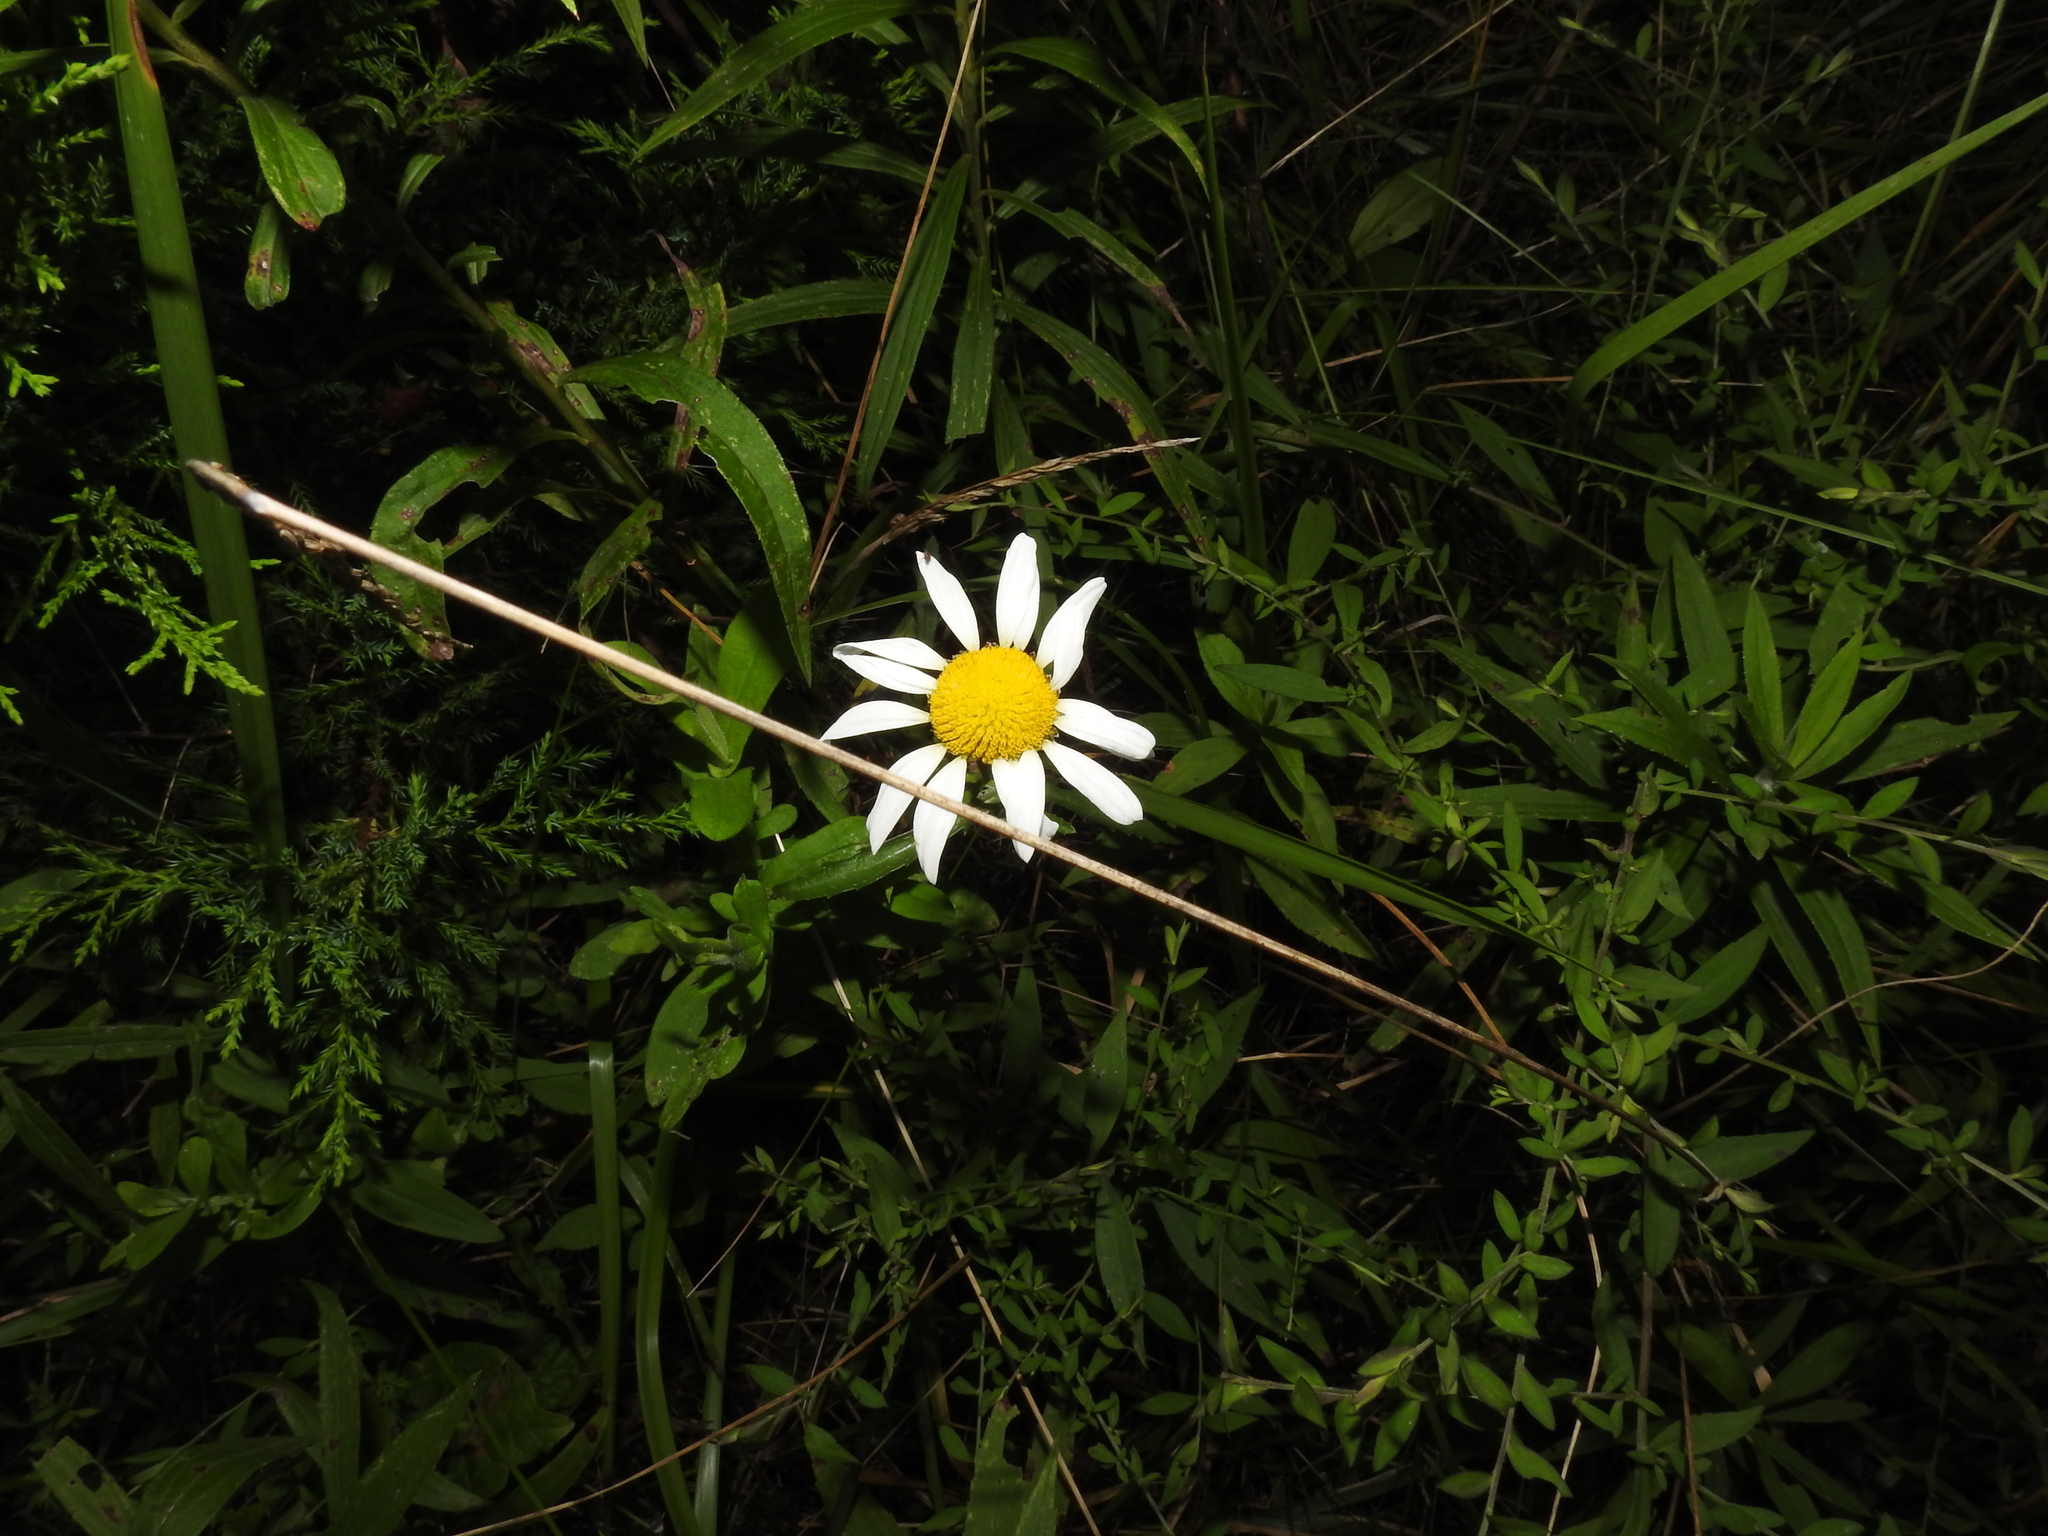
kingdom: Plantae
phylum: Tracheophyta
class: Magnoliopsida
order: Asterales
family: Asteraceae
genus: Leucanthemum
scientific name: Leucanthemum vulgare
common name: Oxeye daisy
